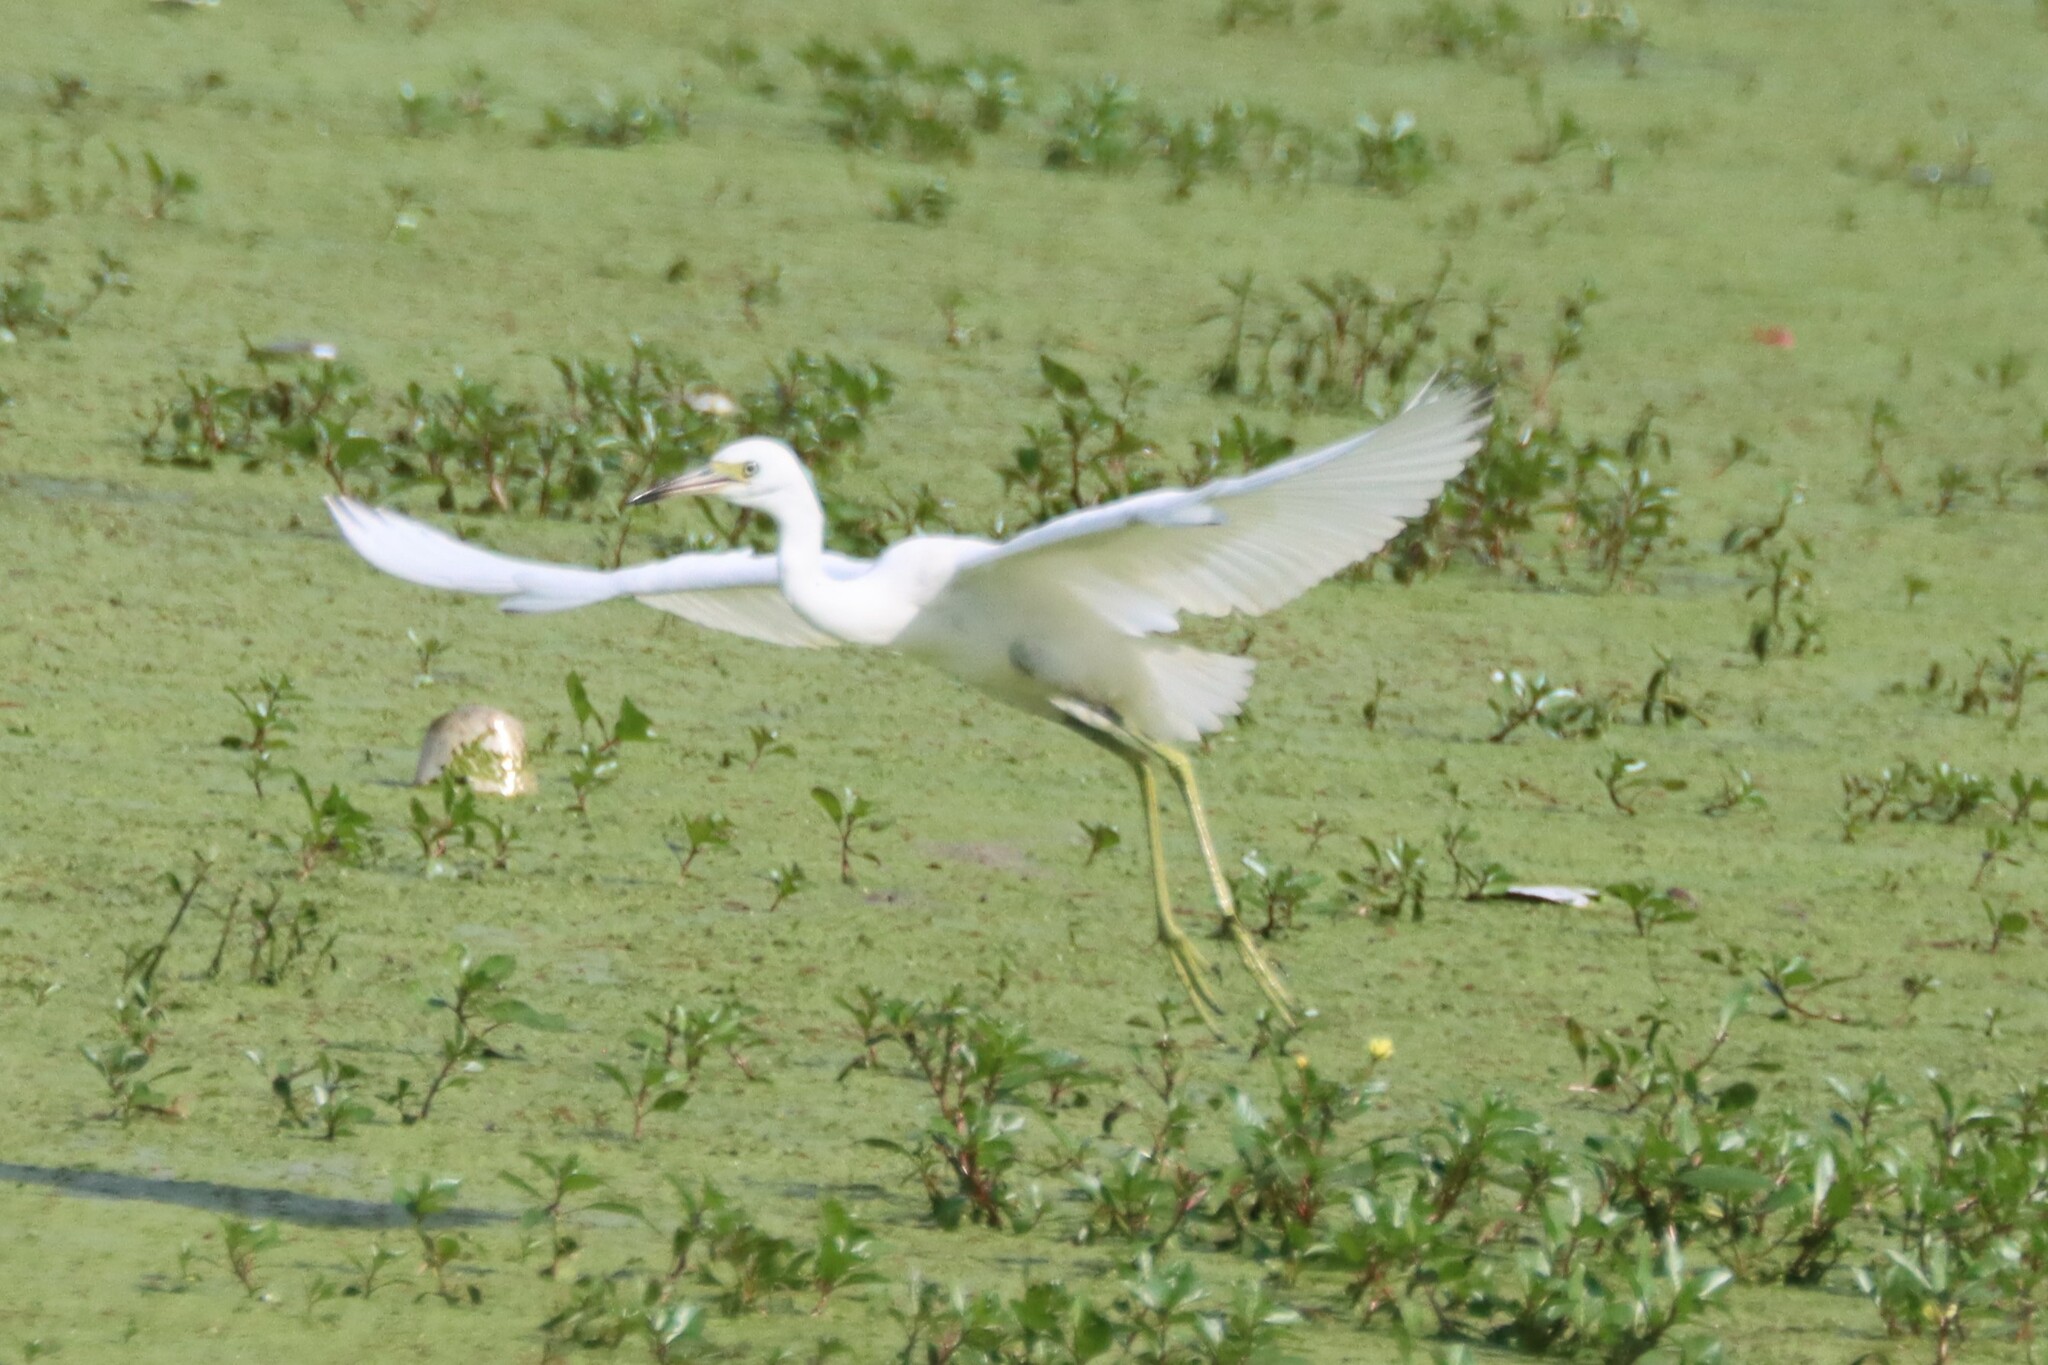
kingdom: Animalia
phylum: Chordata
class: Aves
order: Pelecaniformes
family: Ardeidae
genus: Egretta
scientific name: Egretta caerulea
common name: Little blue heron
